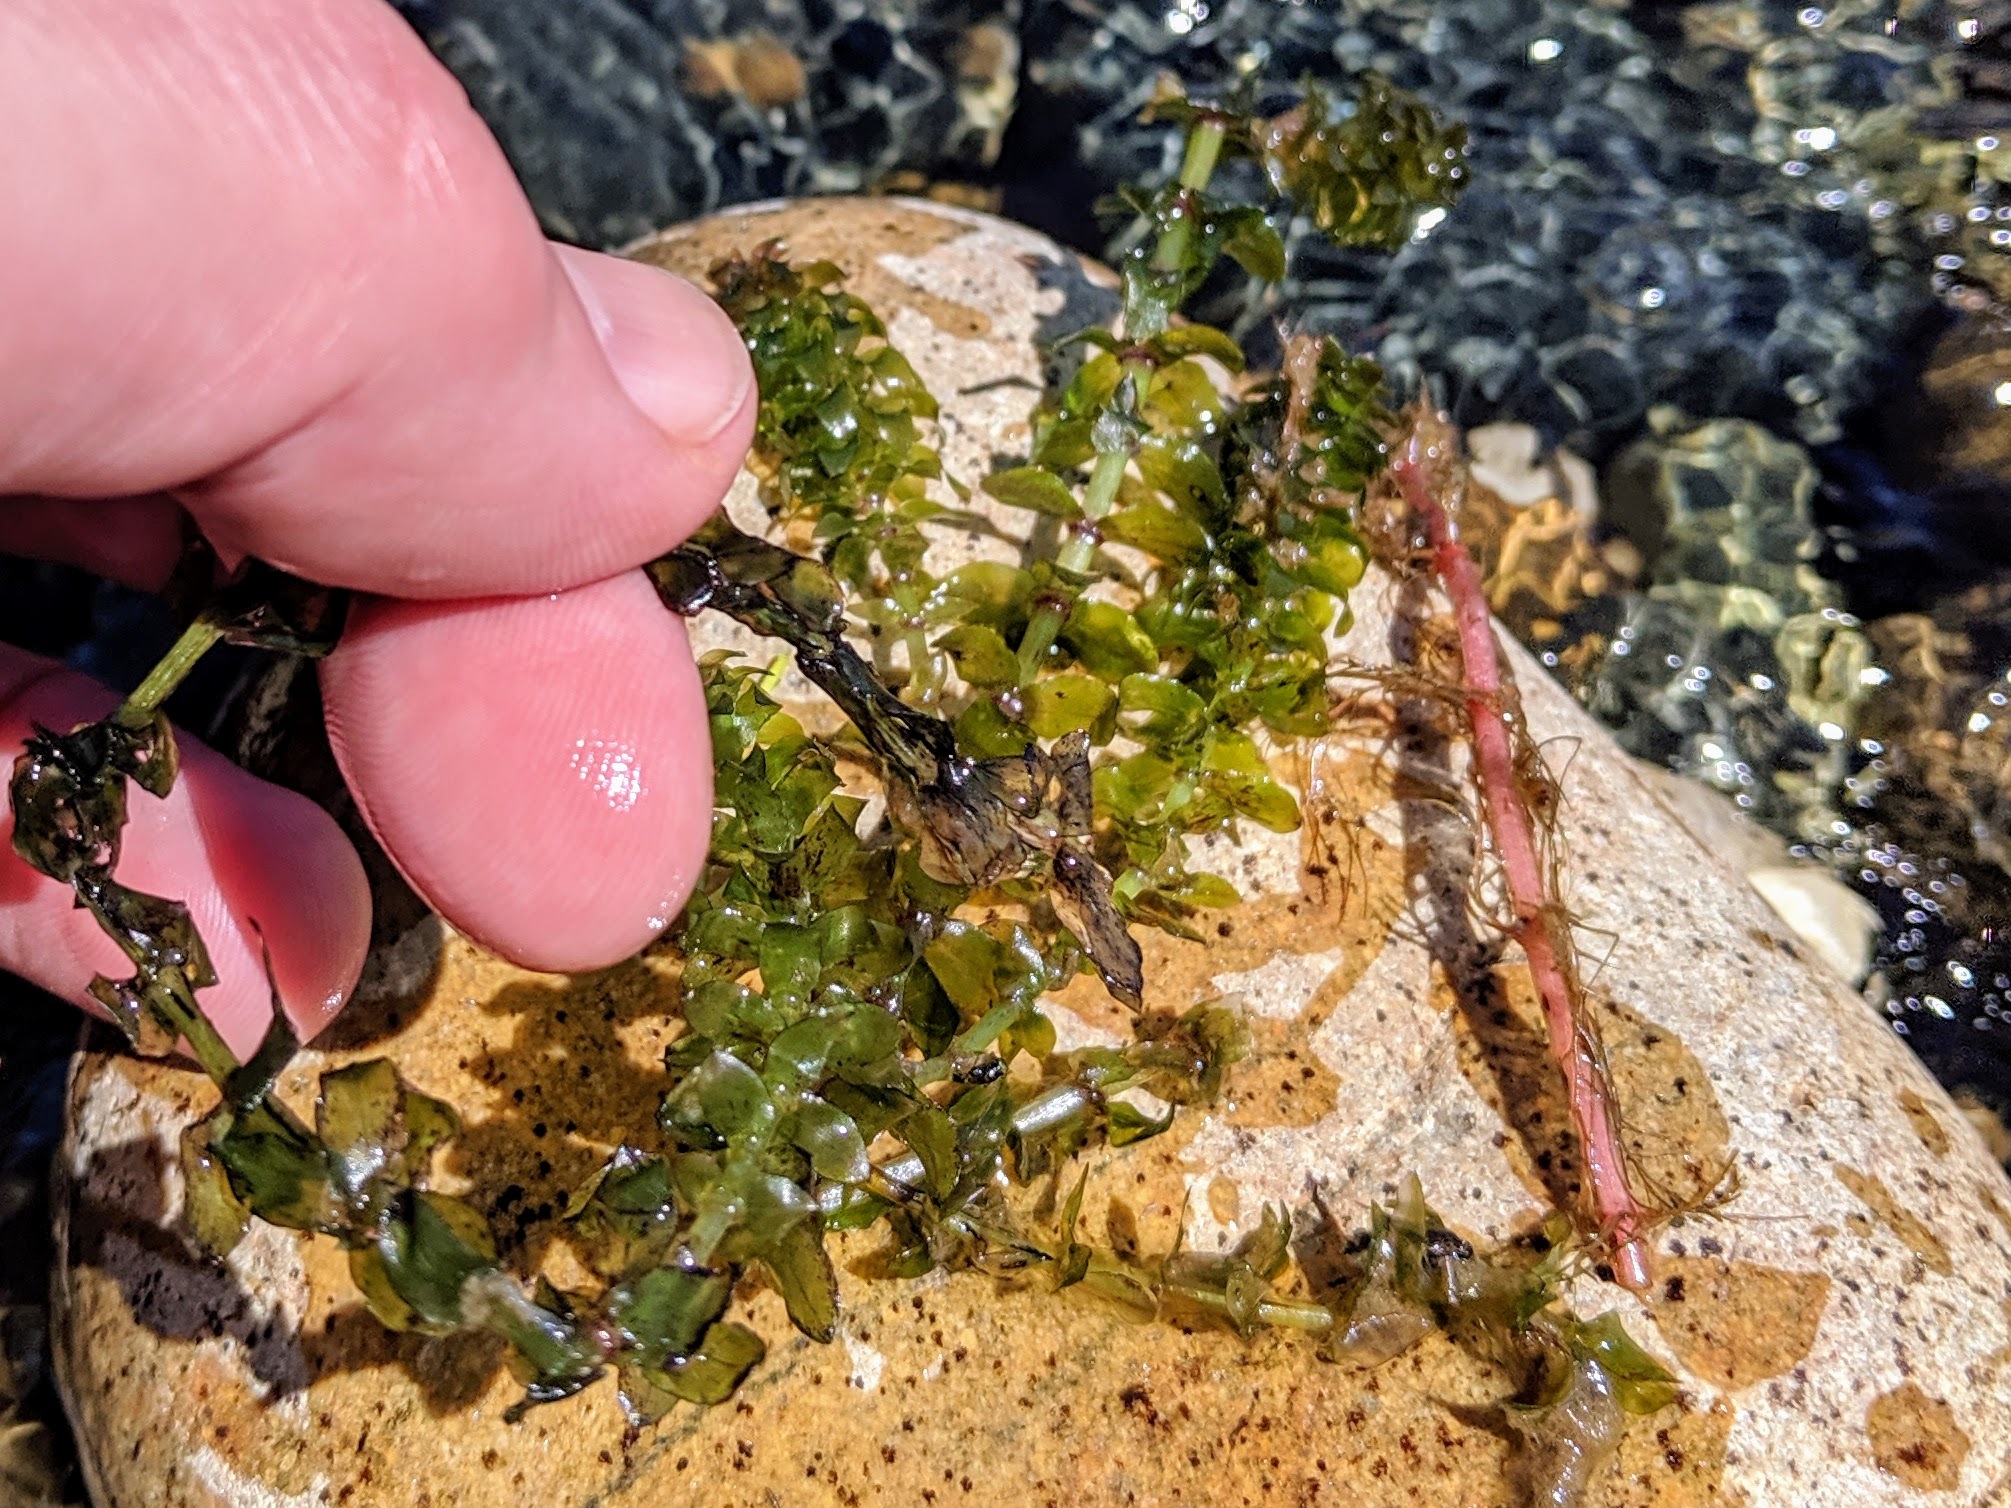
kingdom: Plantae
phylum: Tracheophyta
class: Liliopsida
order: Alismatales
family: Hydrocharitaceae
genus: Elodea
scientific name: Elodea canadensis
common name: Canadian waterweed
